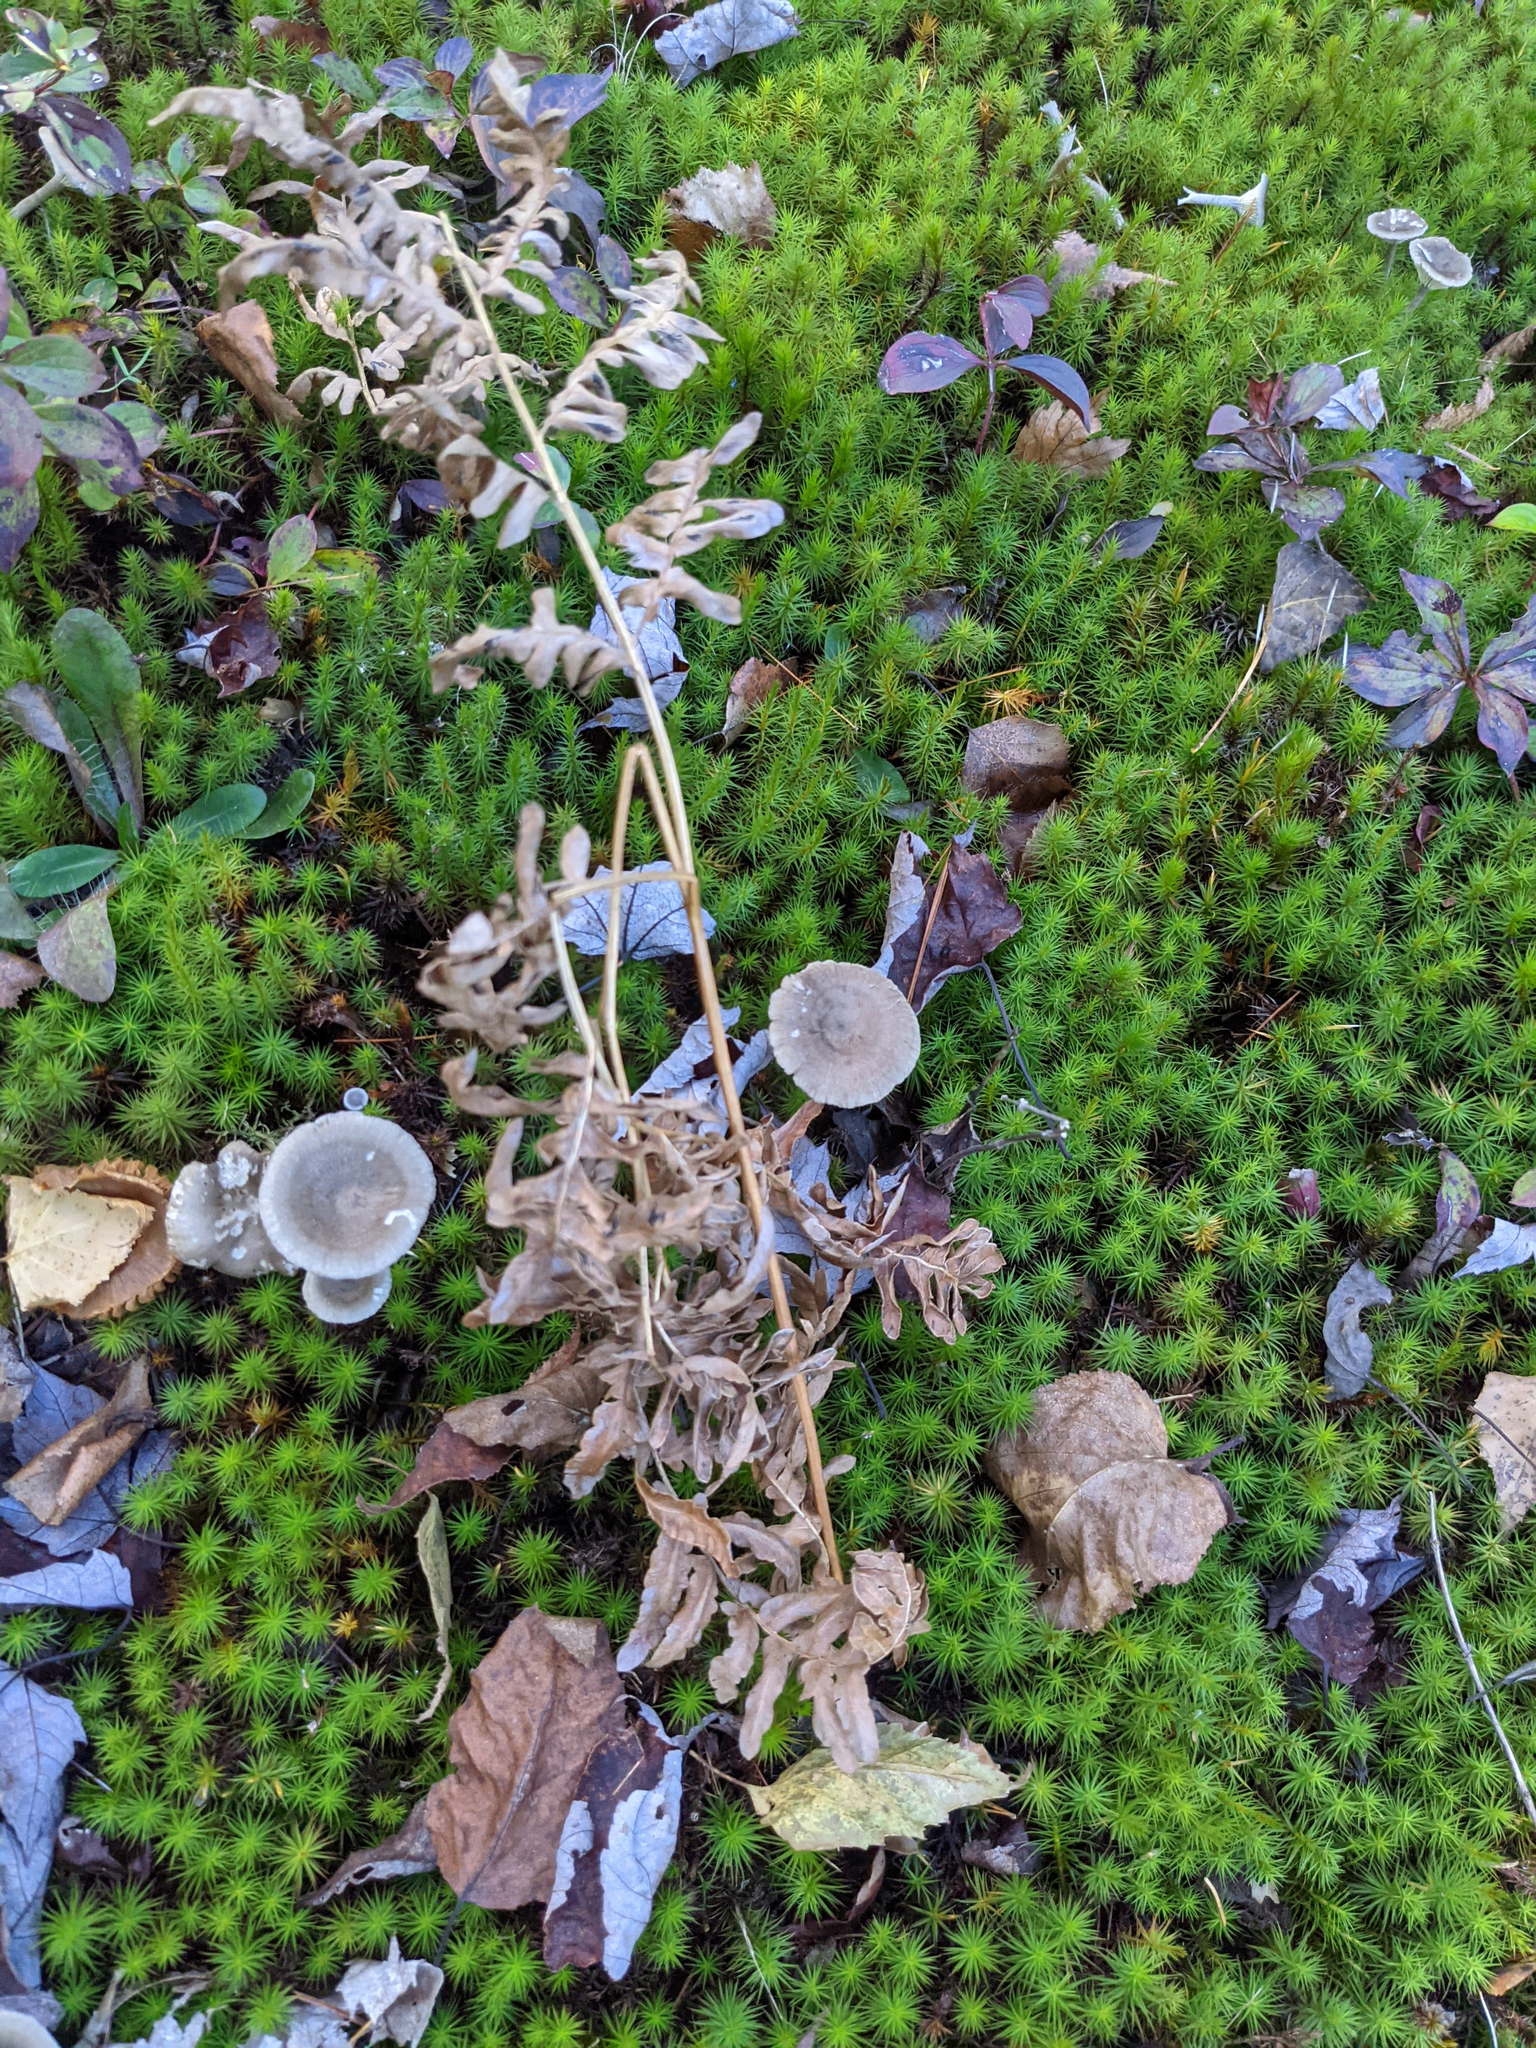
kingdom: Plantae
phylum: Tracheophyta
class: Polypodiopsida
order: Polypodiales
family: Dennstaedtiaceae
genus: Pteridium
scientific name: Pteridium aquilinum
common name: Bracken
